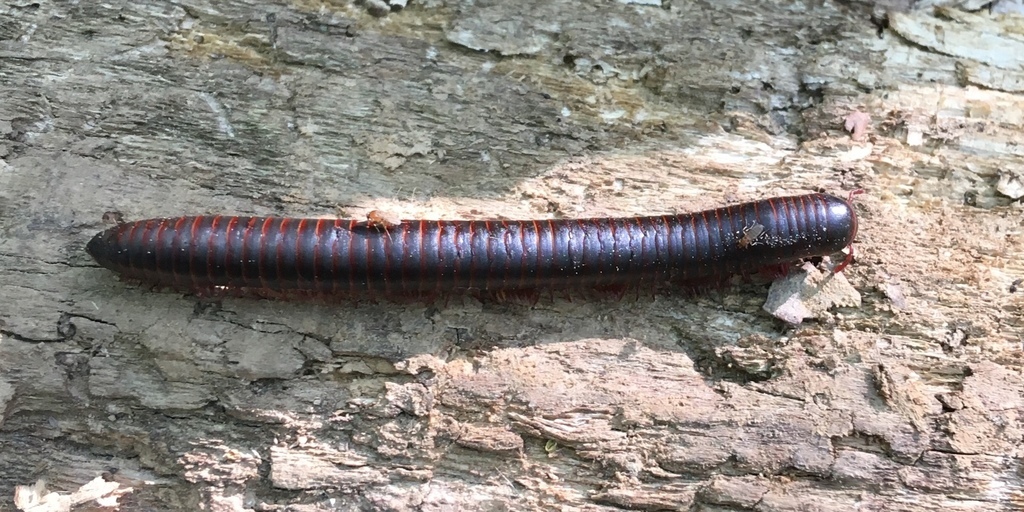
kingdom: Animalia
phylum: Arthropoda
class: Diplopoda
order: Spirobolida
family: Spirobolidae
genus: Narceus
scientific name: Narceus
